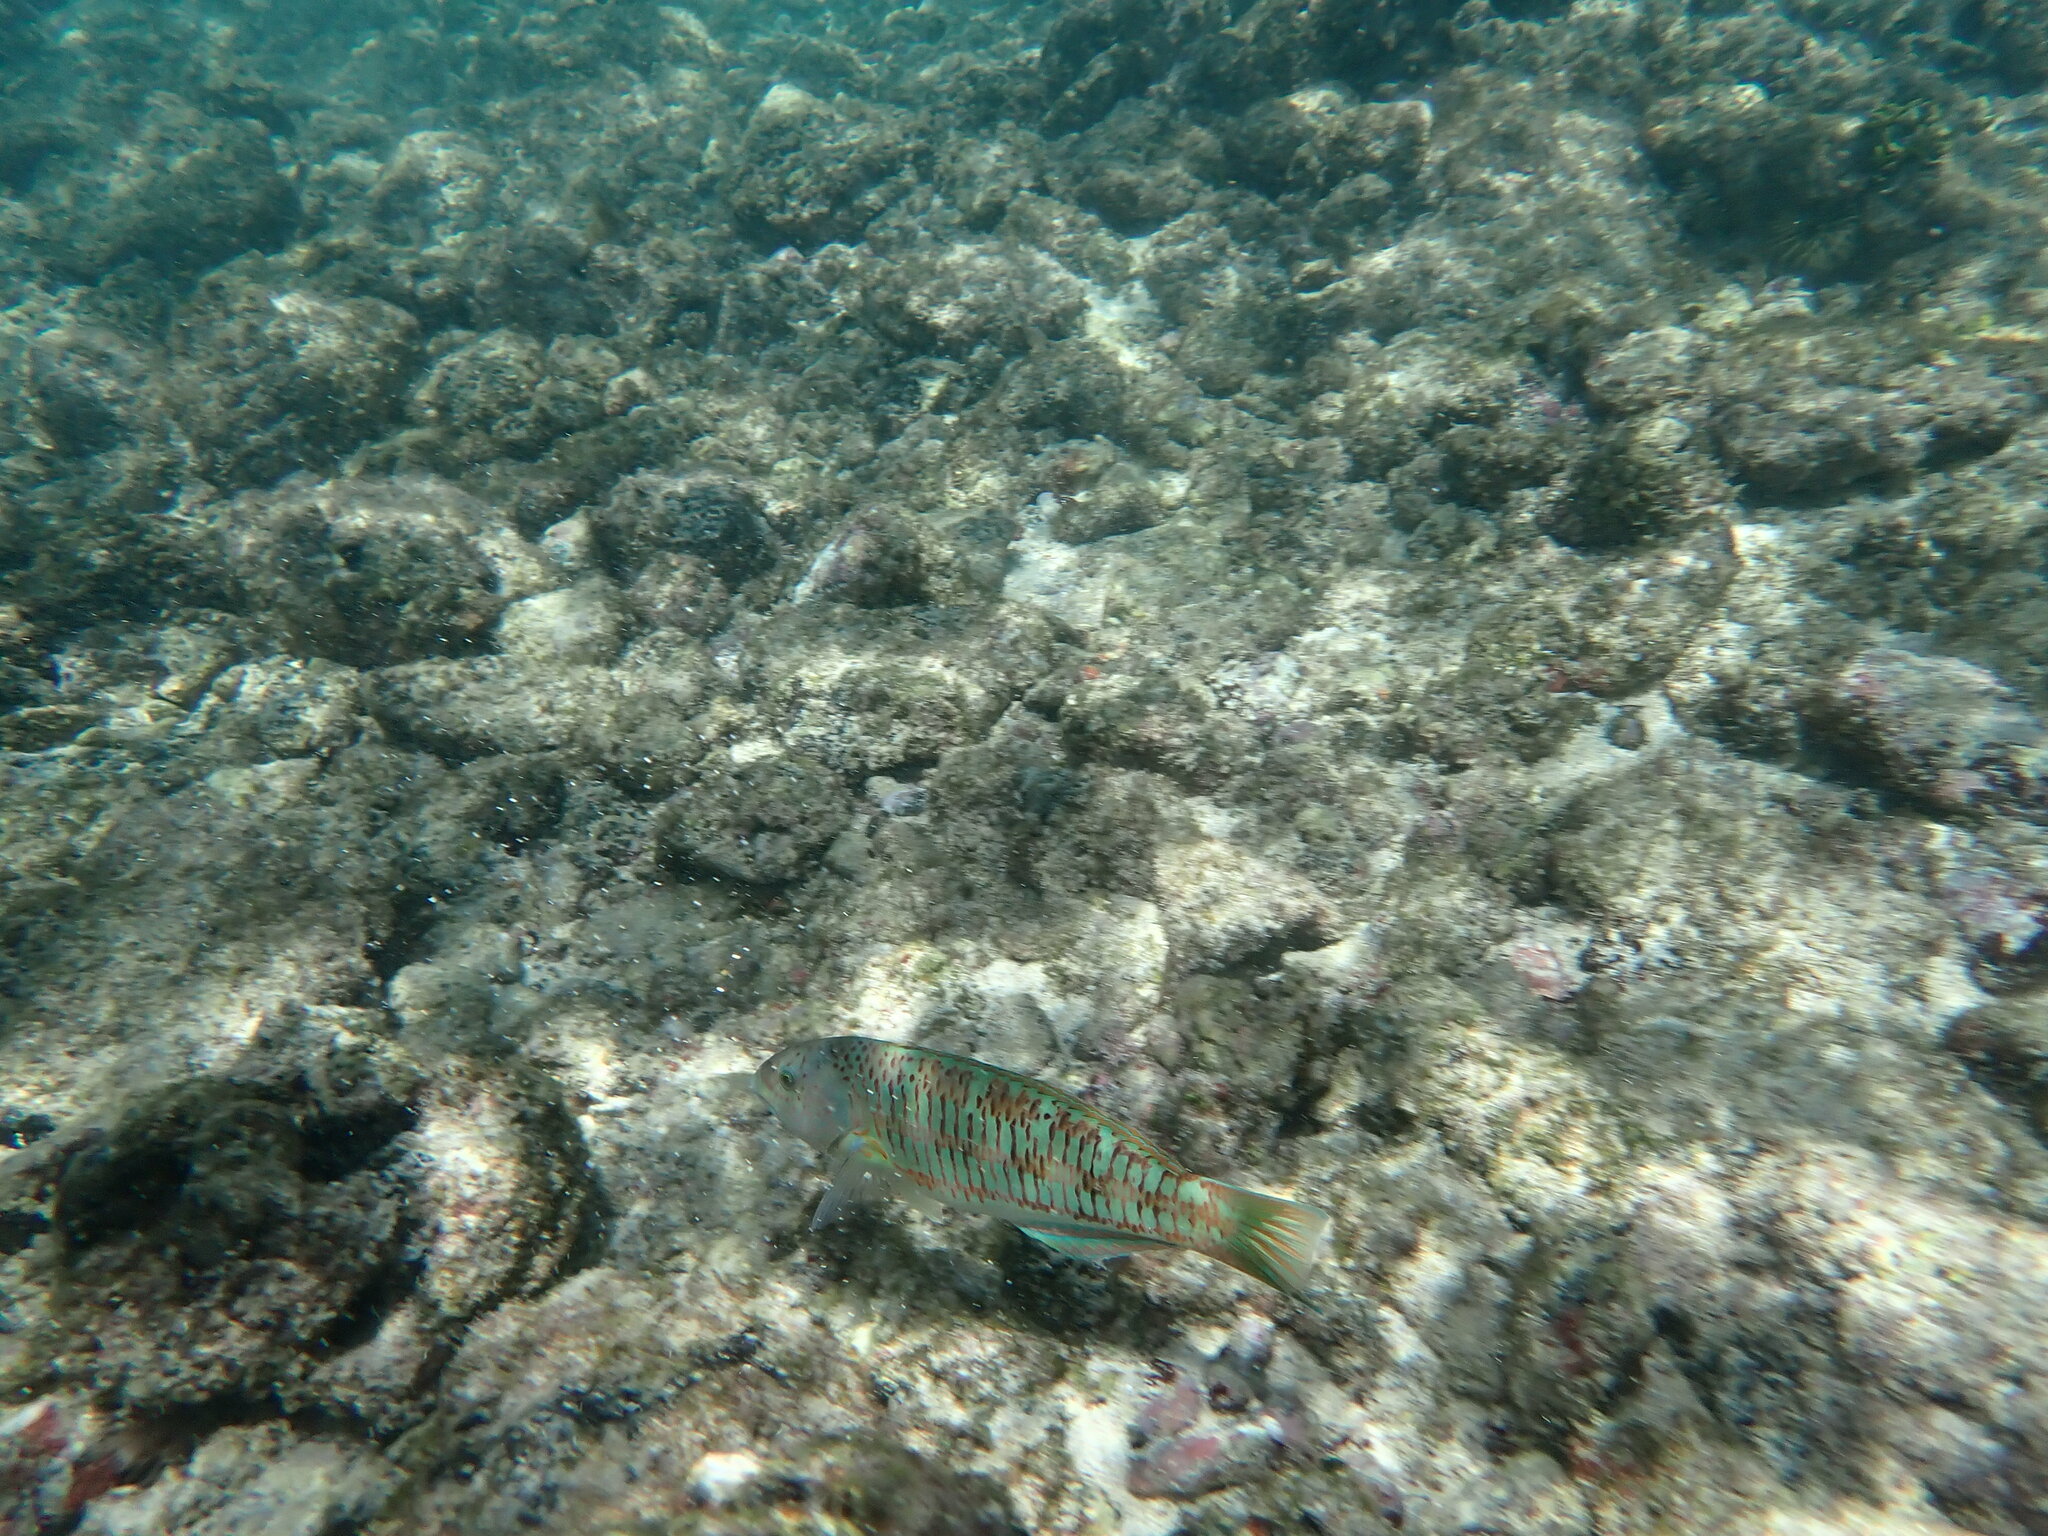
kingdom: Animalia
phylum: Chordata
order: Perciformes
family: Labridae
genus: Thalassoma
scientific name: Thalassoma trilobatum
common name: Christmas wrasse
